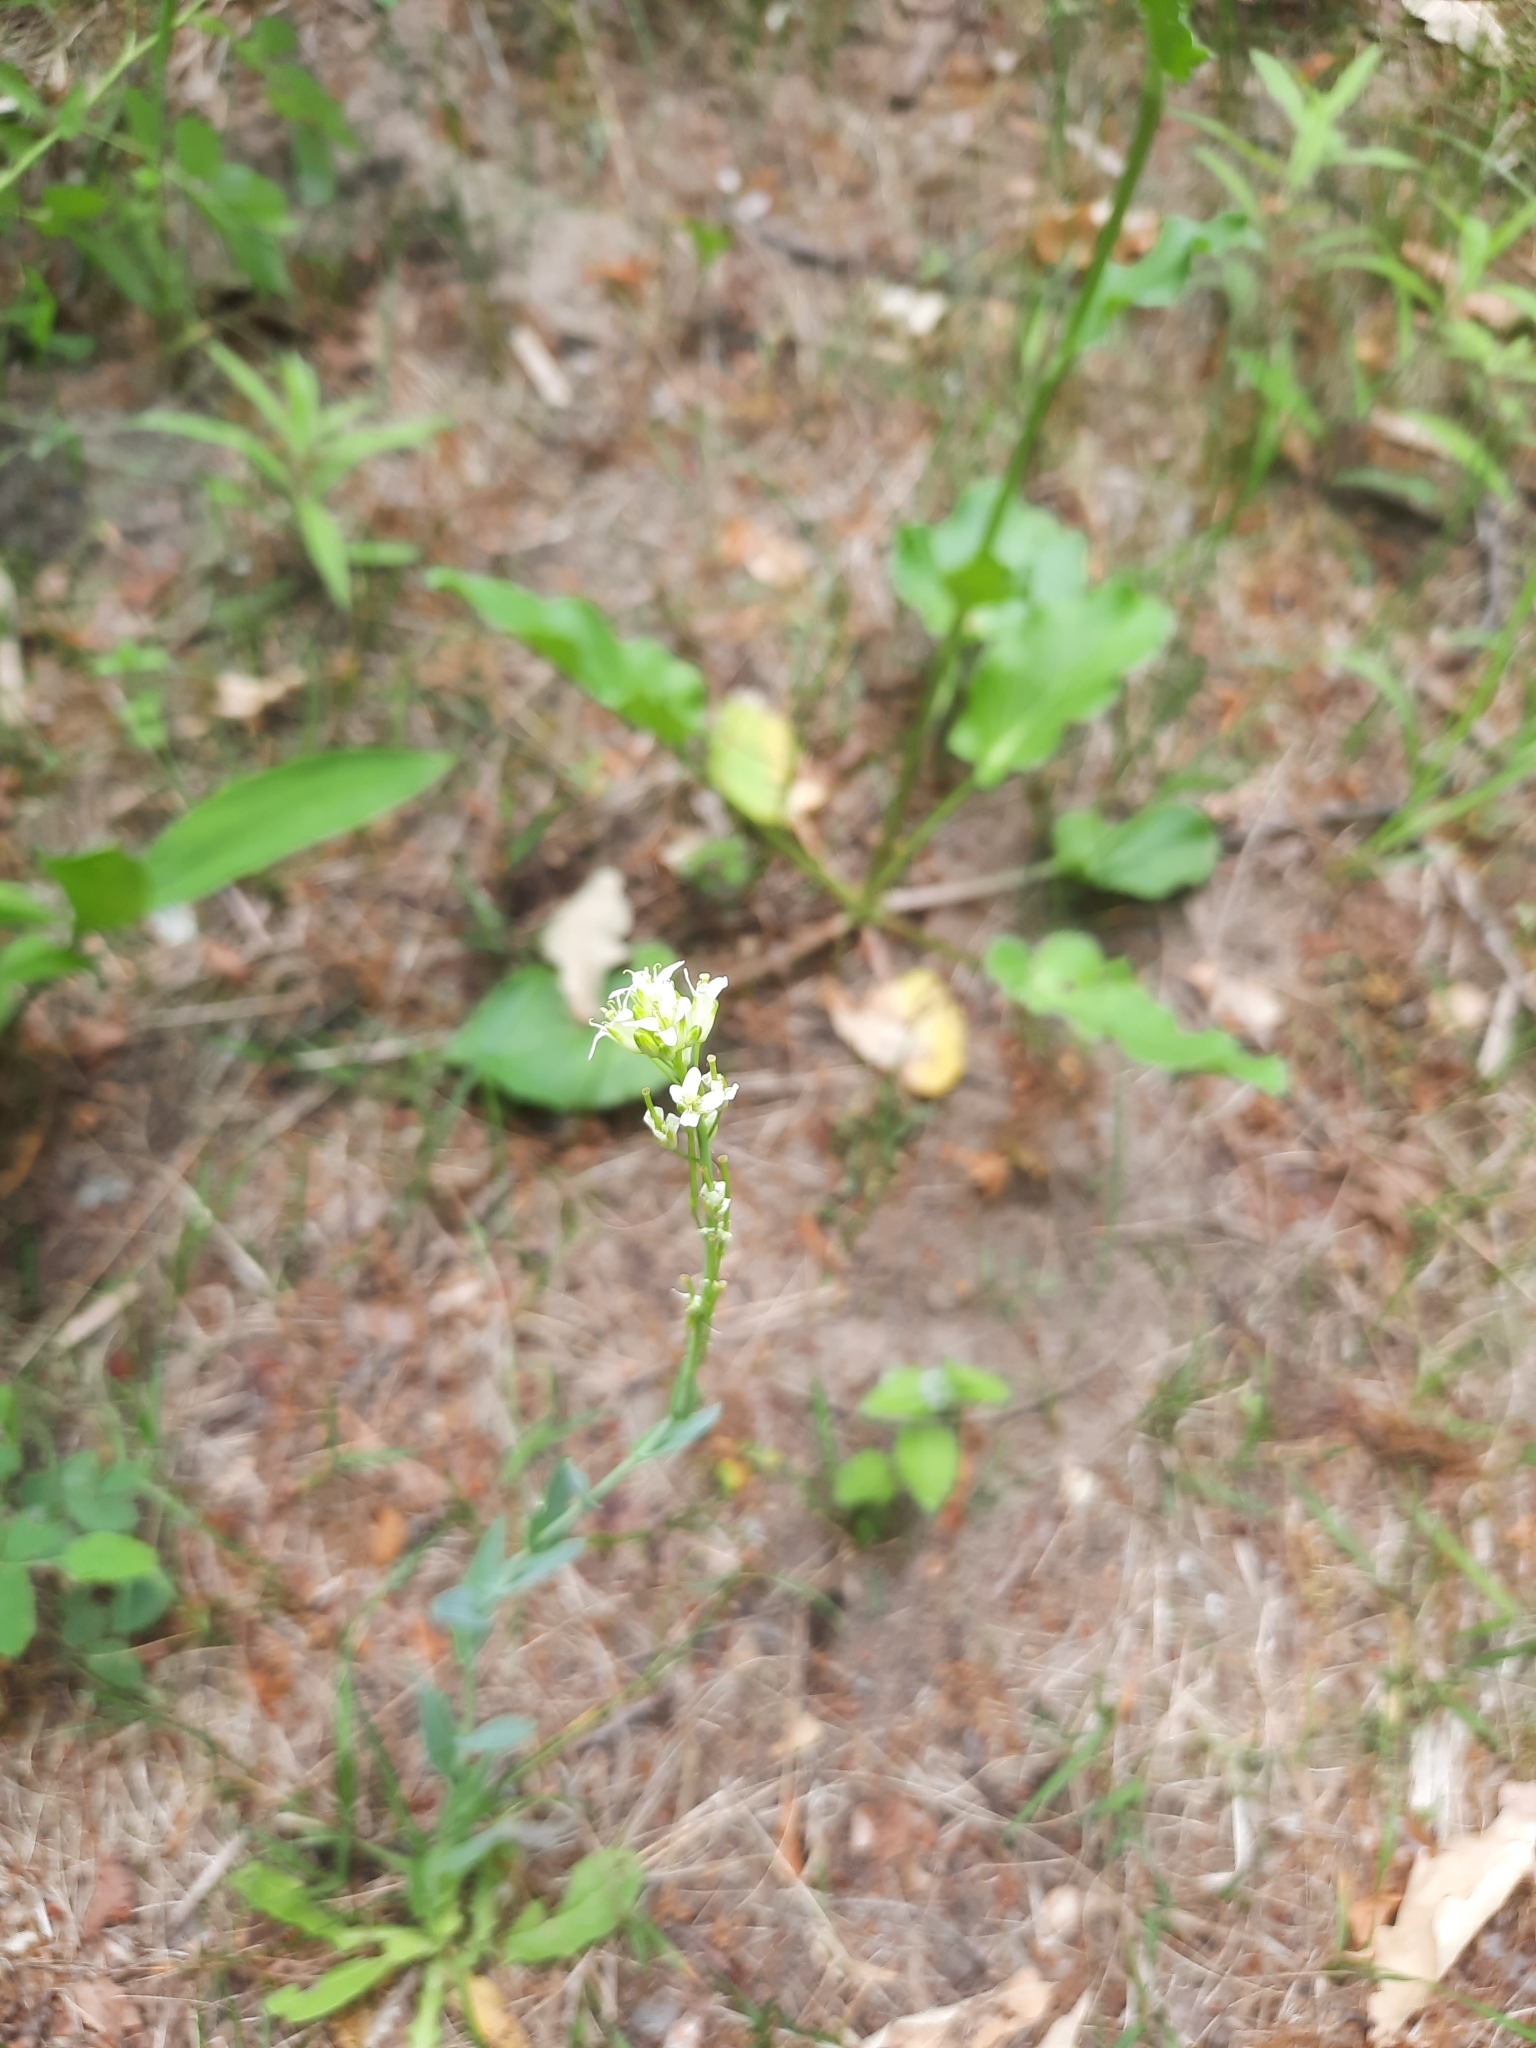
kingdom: Plantae
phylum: Tracheophyta
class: Magnoliopsida
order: Brassicales
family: Brassicaceae
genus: Turritis
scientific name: Turritis glabra
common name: Tower rockcress
